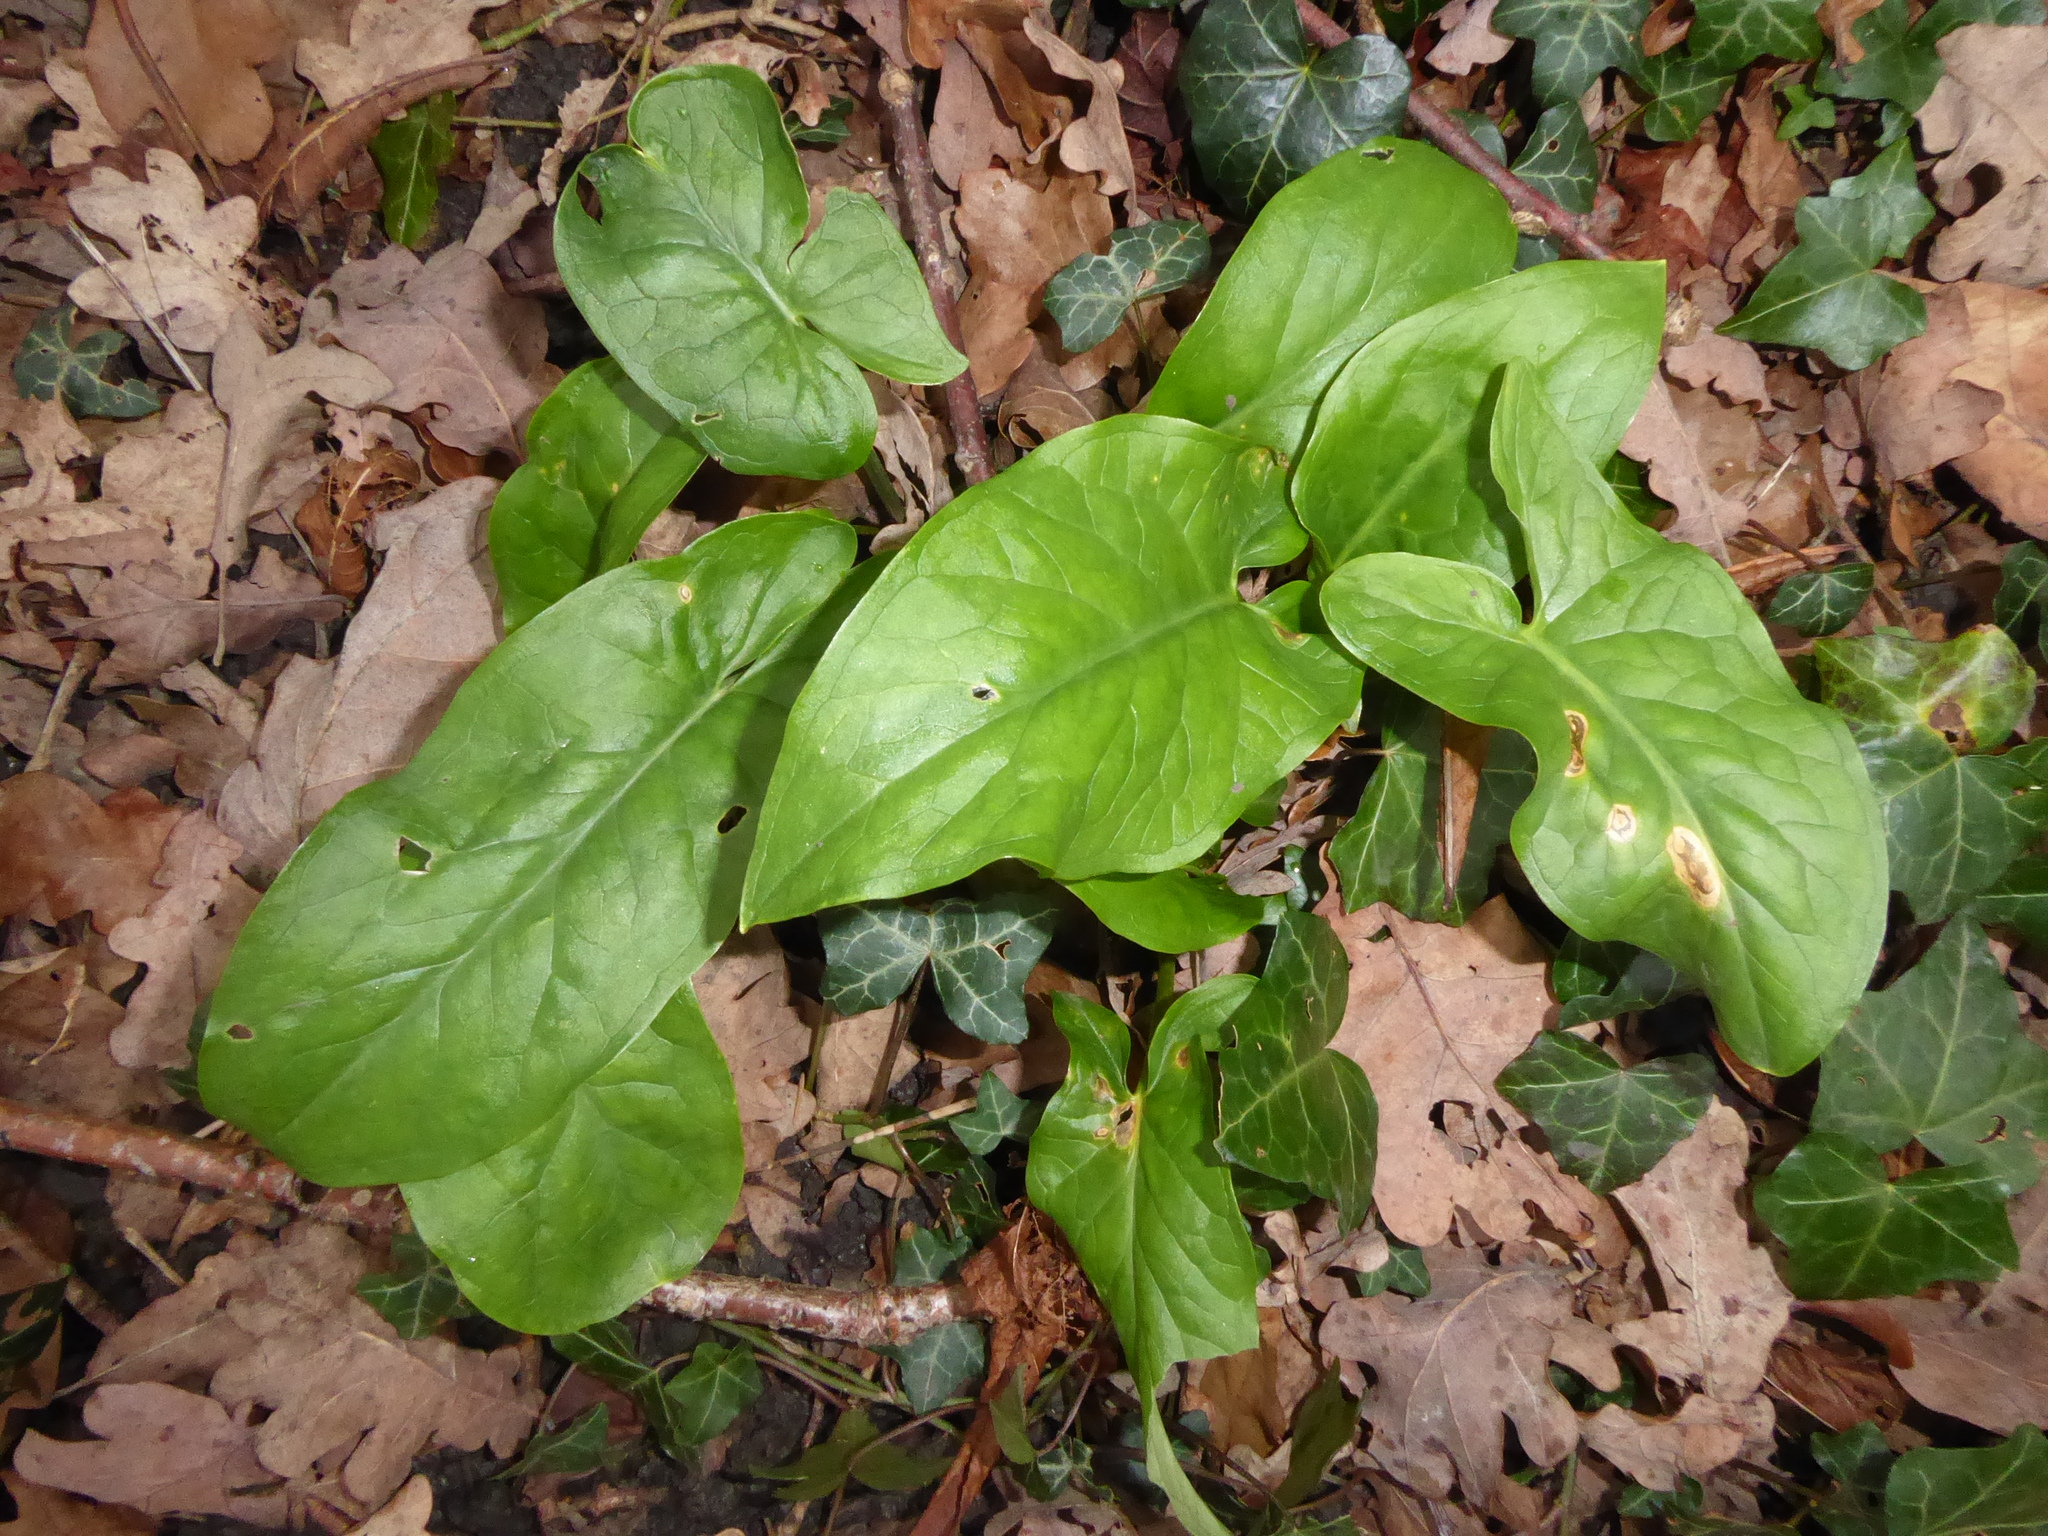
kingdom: Plantae
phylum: Tracheophyta
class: Liliopsida
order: Alismatales
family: Araceae
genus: Arum
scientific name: Arum maculatum
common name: Lords-and-ladies
